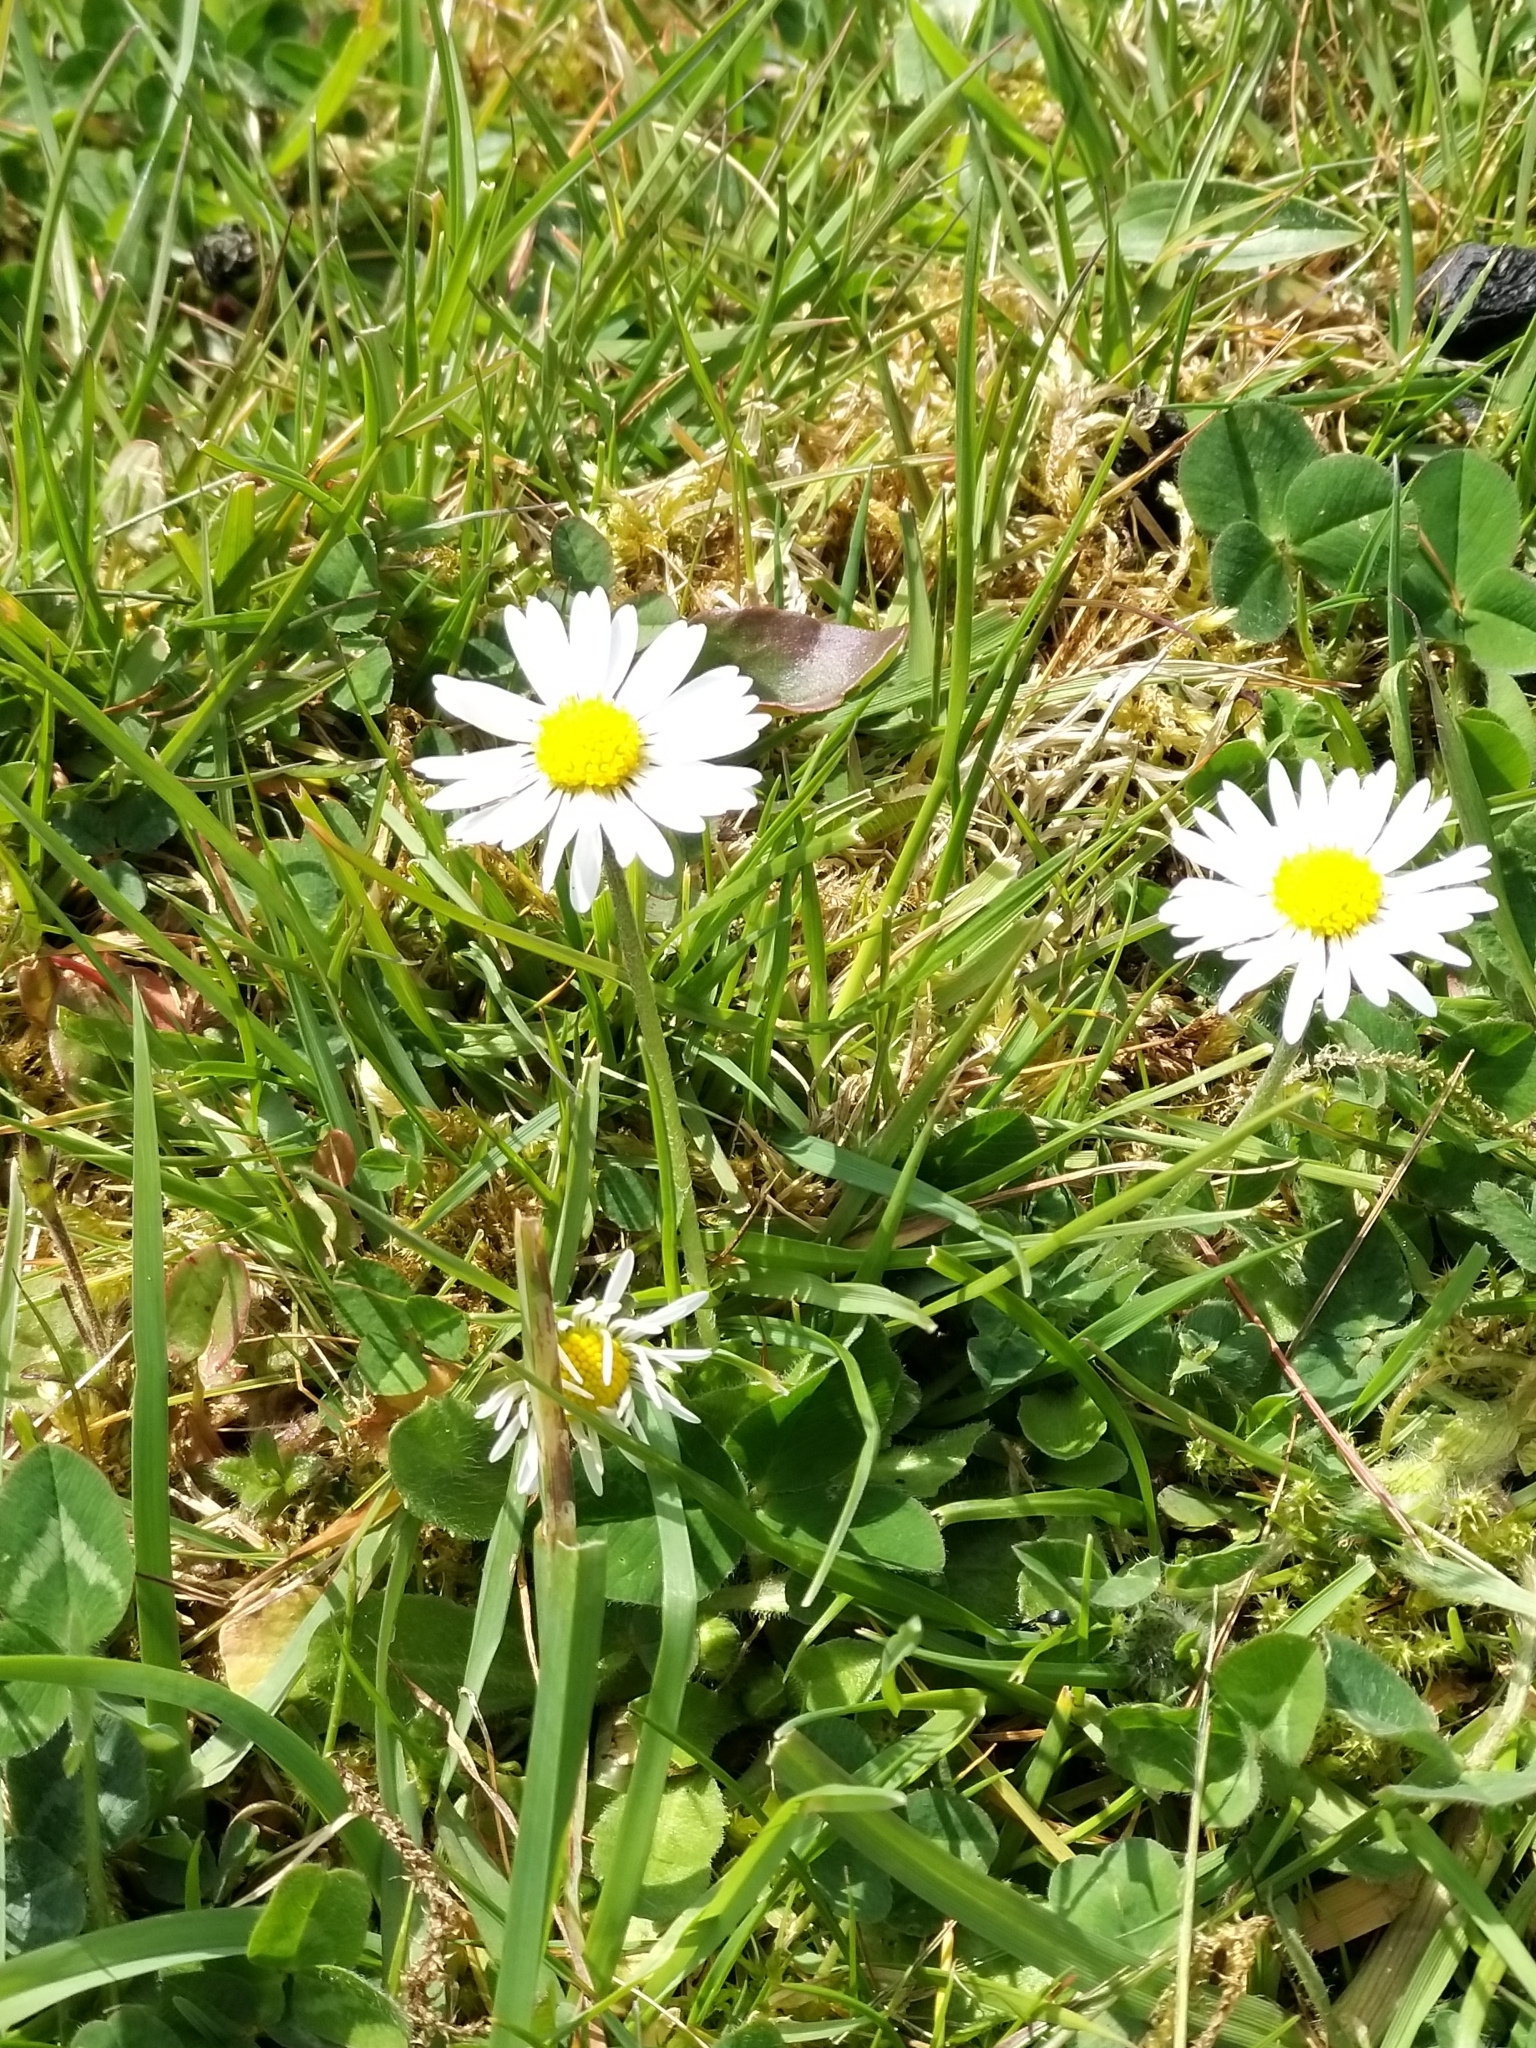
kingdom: Plantae
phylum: Tracheophyta
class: Magnoliopsida
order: Asterales
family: Asteraceae
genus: Bellis
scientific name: Bellis perennis
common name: Lawndaisy
